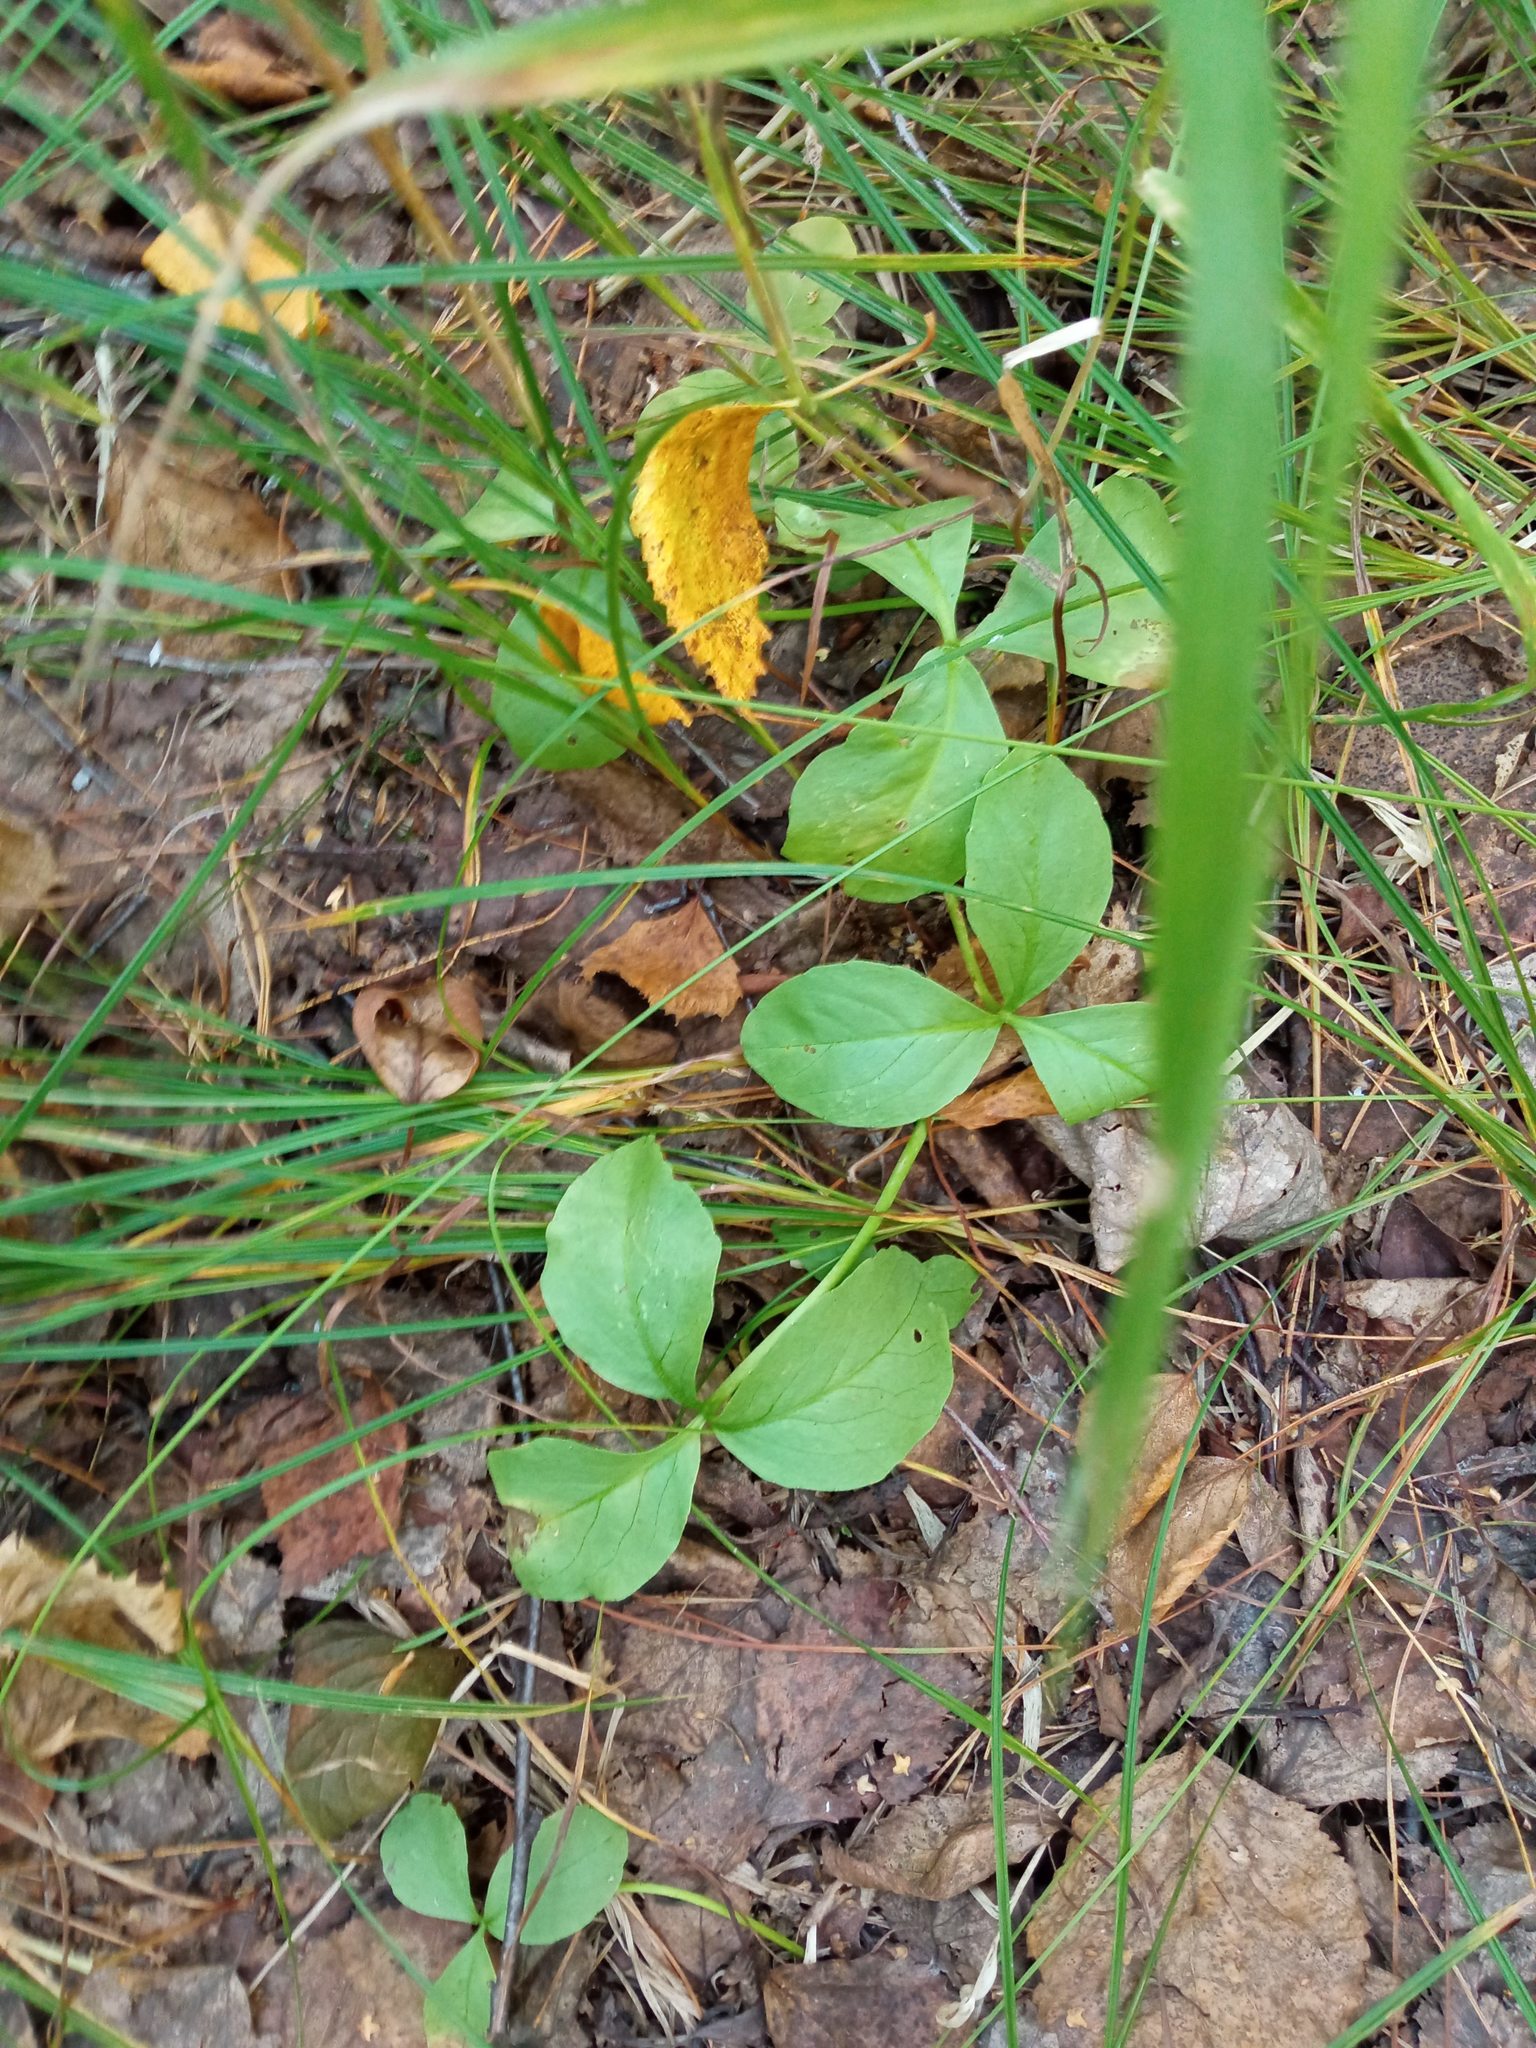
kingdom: Plantae
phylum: Tracheophyta
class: Magnoliopsida
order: Asterales
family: Menyanthaceae
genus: Menyanthes
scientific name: Menyanthes trifoliata
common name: Bogbean
